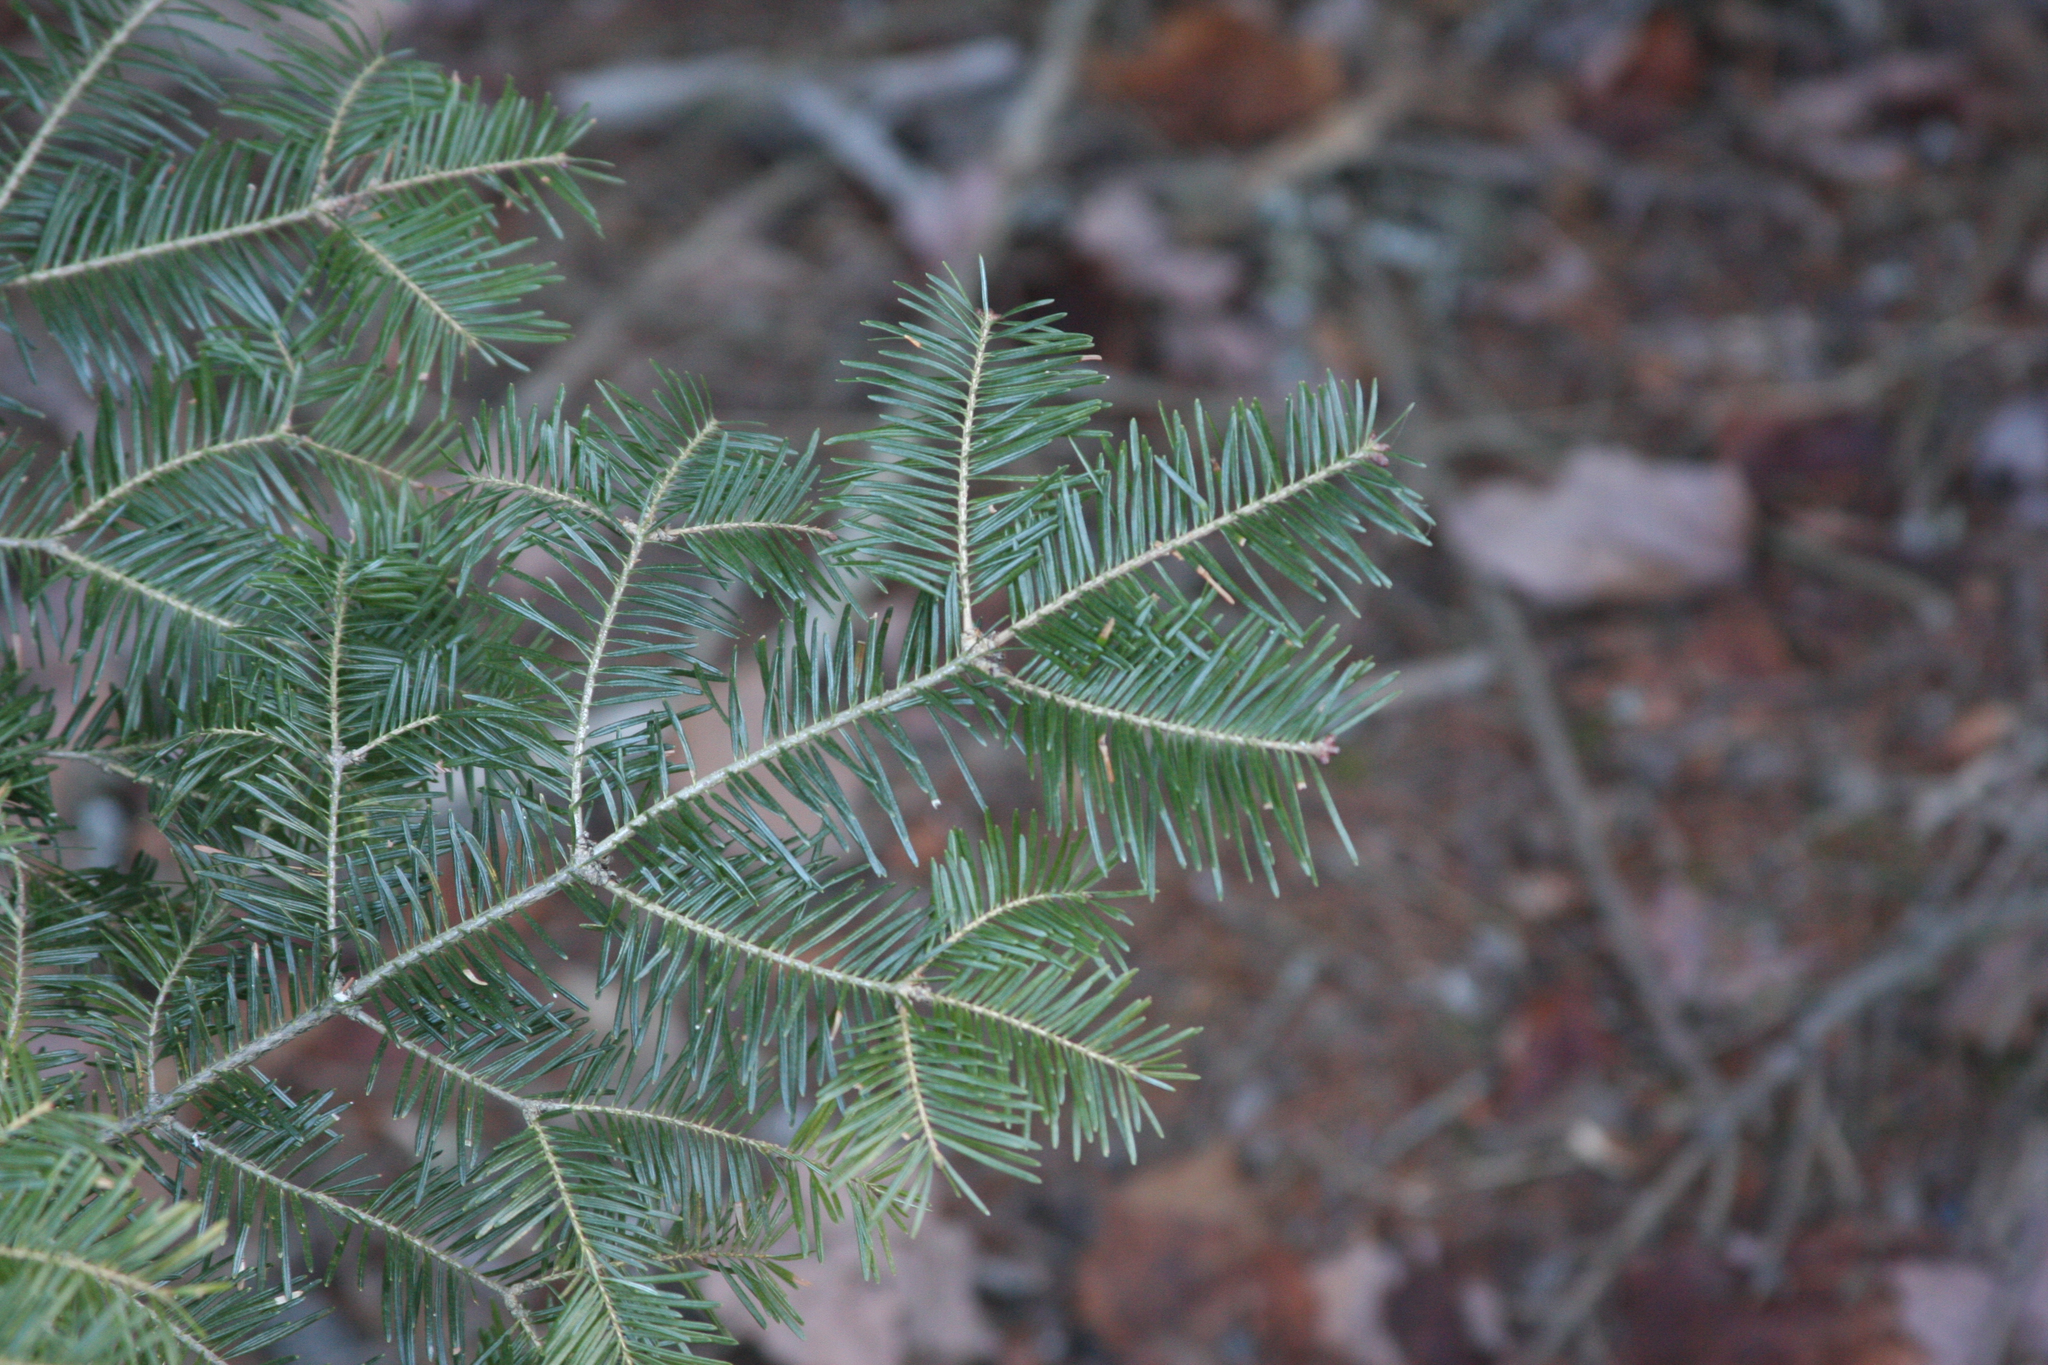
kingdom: Plantae
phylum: Tracheophyta
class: Pinopsida
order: Pinales
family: Pinaceae
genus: Abies
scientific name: Abies balsamea
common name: Balsam fir
